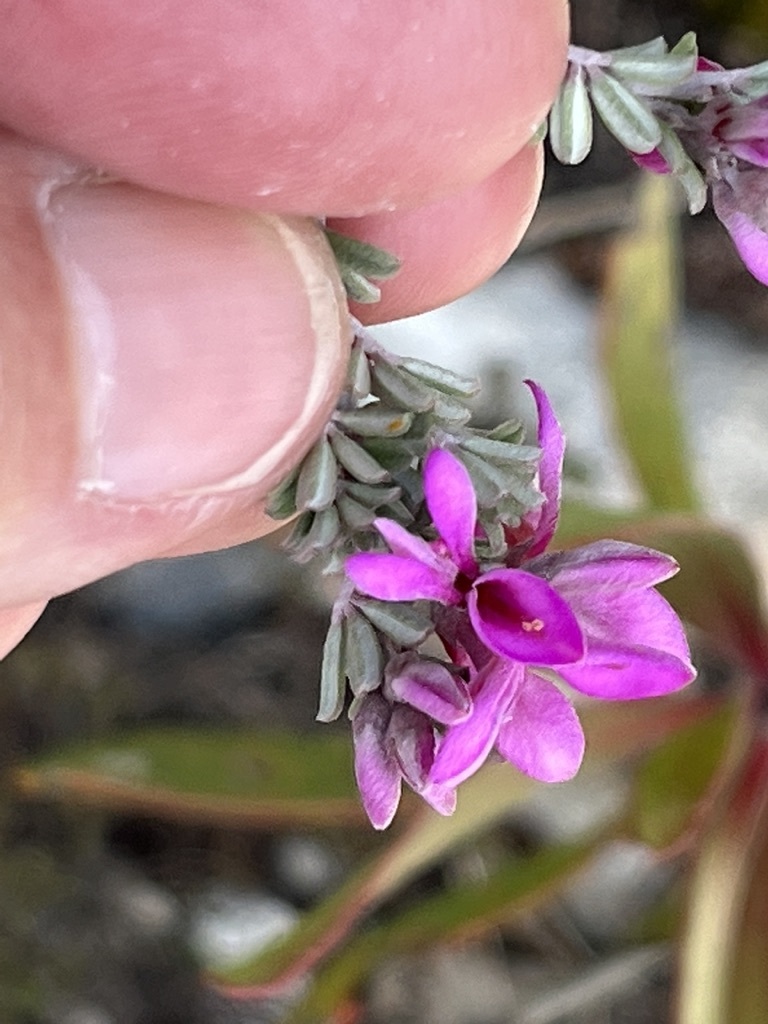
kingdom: Plantae
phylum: Tracheophyta
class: Magnoliopsida
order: Fabales
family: Fabaceae
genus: Indigofera
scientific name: Indigofera
